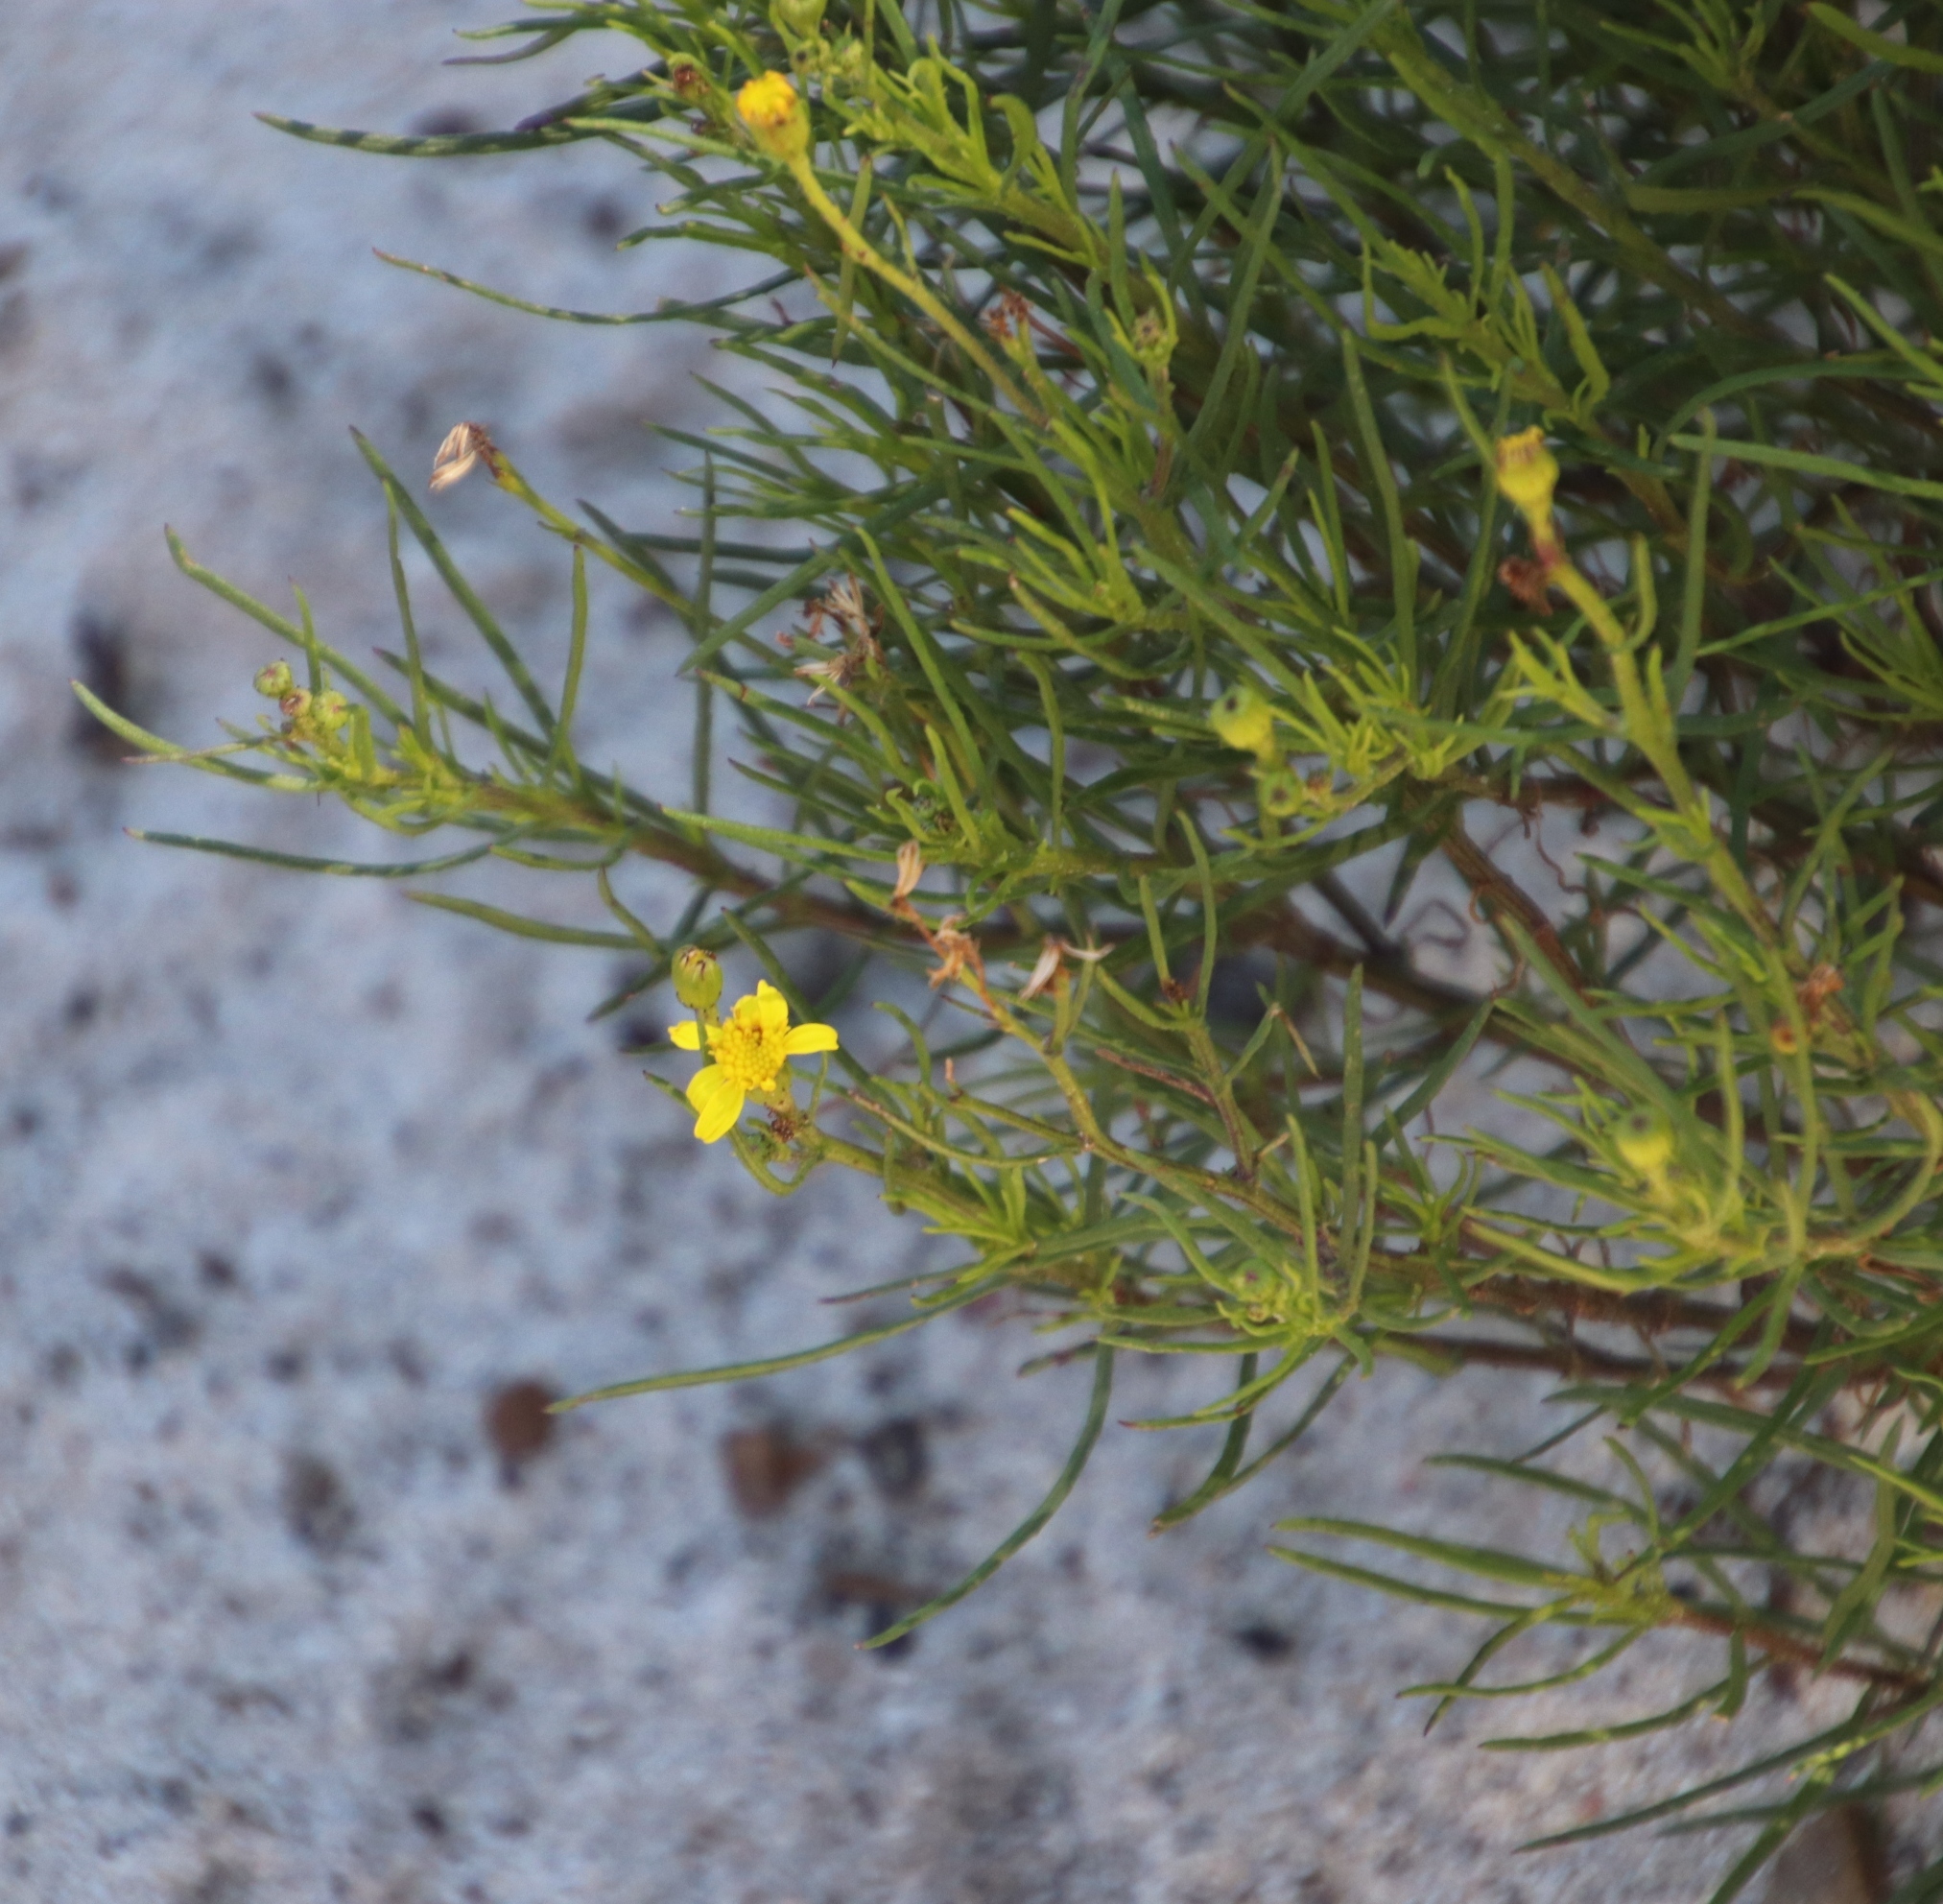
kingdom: Plantae
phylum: Tracheophyta
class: Magnoliopsida
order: Asterales
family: Asteraceae
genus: Senecio
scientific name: Senecio burchellii
